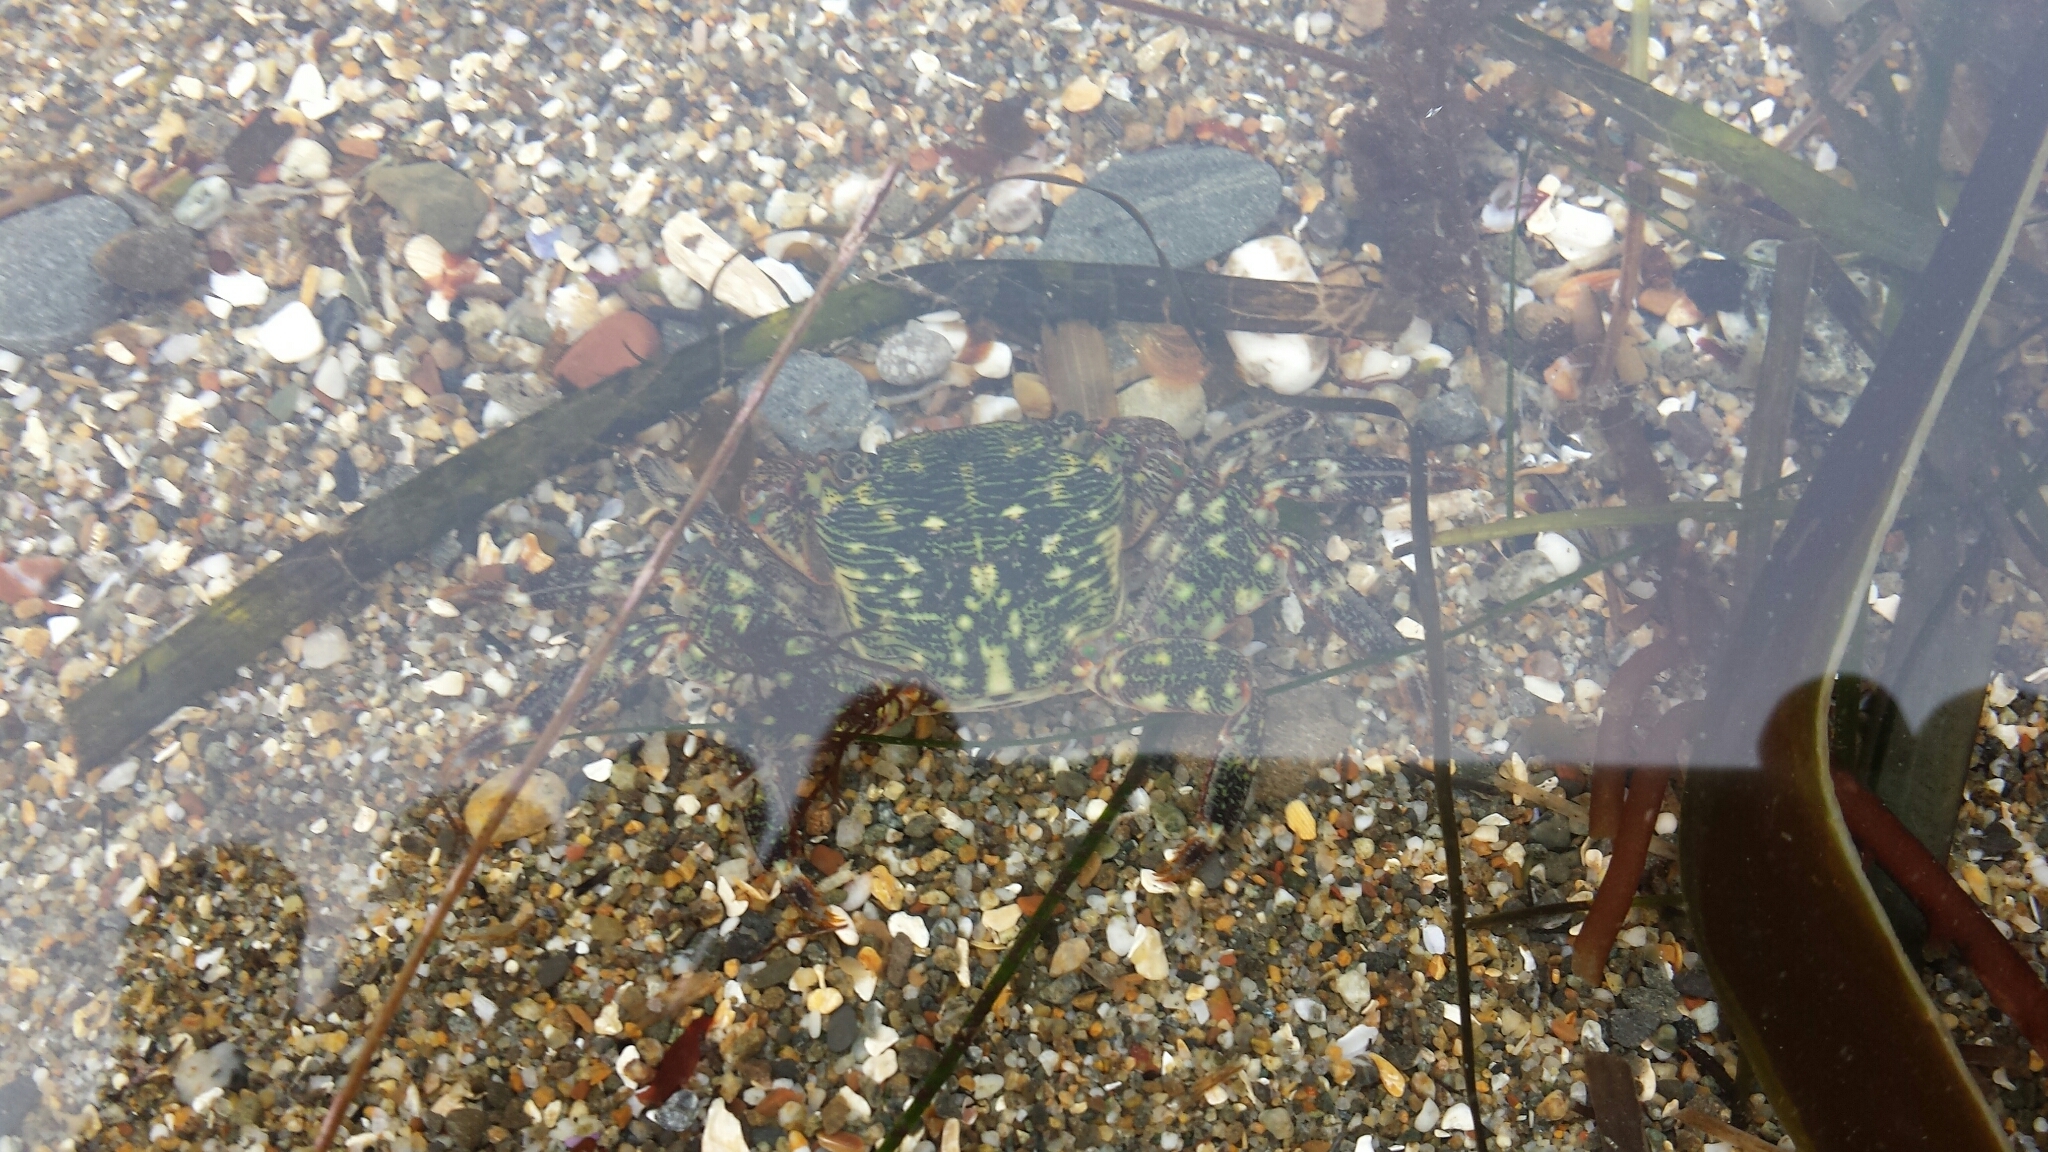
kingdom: Animalia
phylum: Arthropoda
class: Malacostraca
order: Decapoda
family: Grapsidae
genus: Pachygrapsus
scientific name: Pachygrapsus crassipes
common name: Striped shore crab
